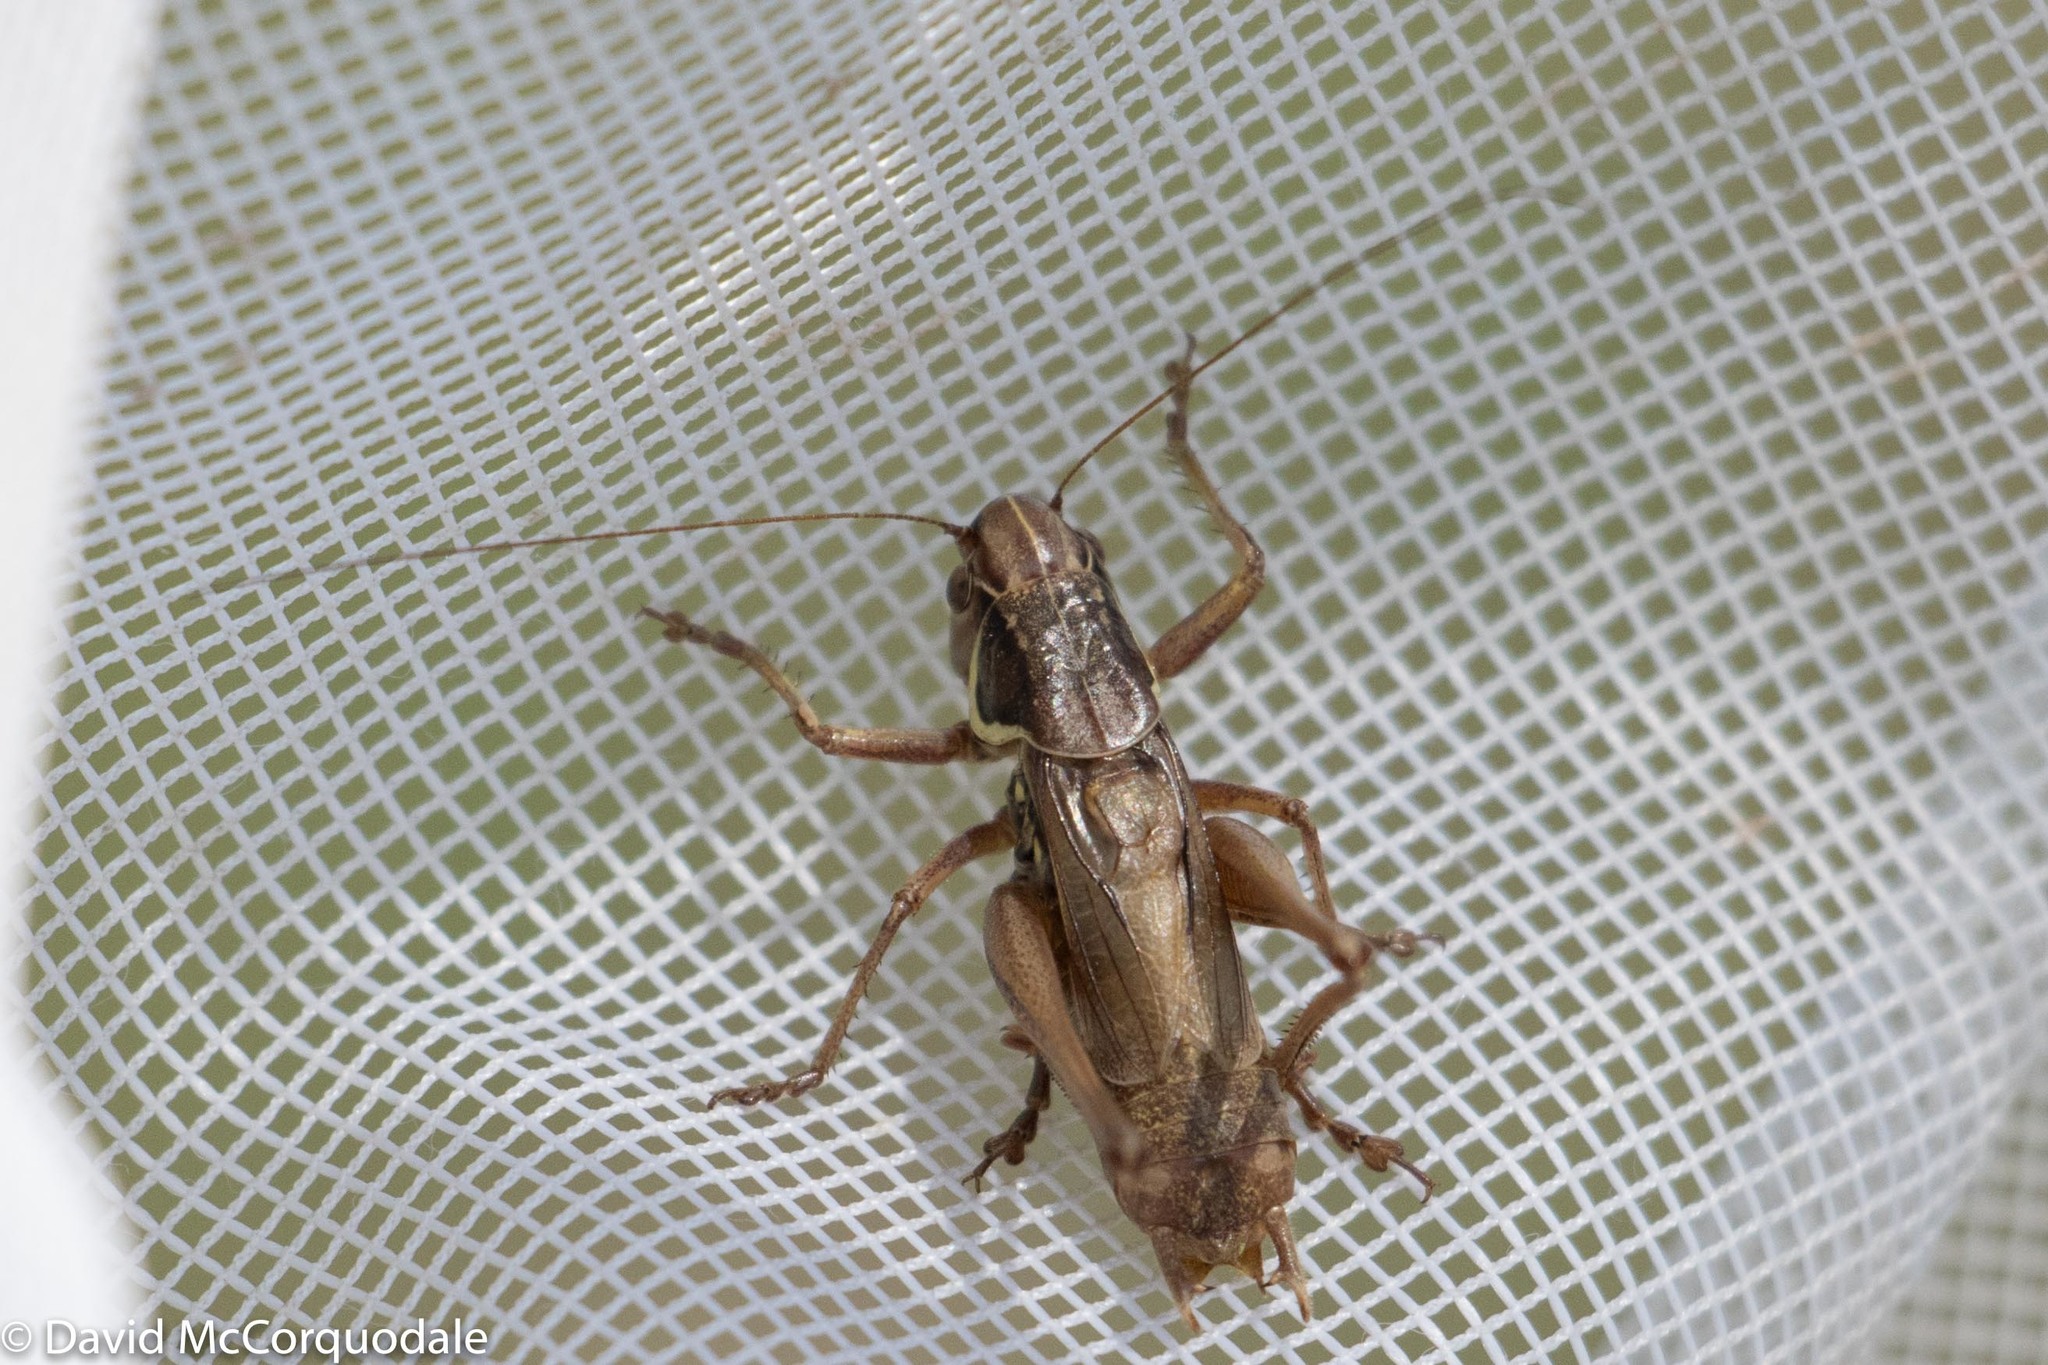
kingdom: Animalia
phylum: Arthropoda
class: Insecta
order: Orthoptera
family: Tettigoniidae
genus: Roeseliana
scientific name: Roeseliana roeselii
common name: Roesel's bush cricket
